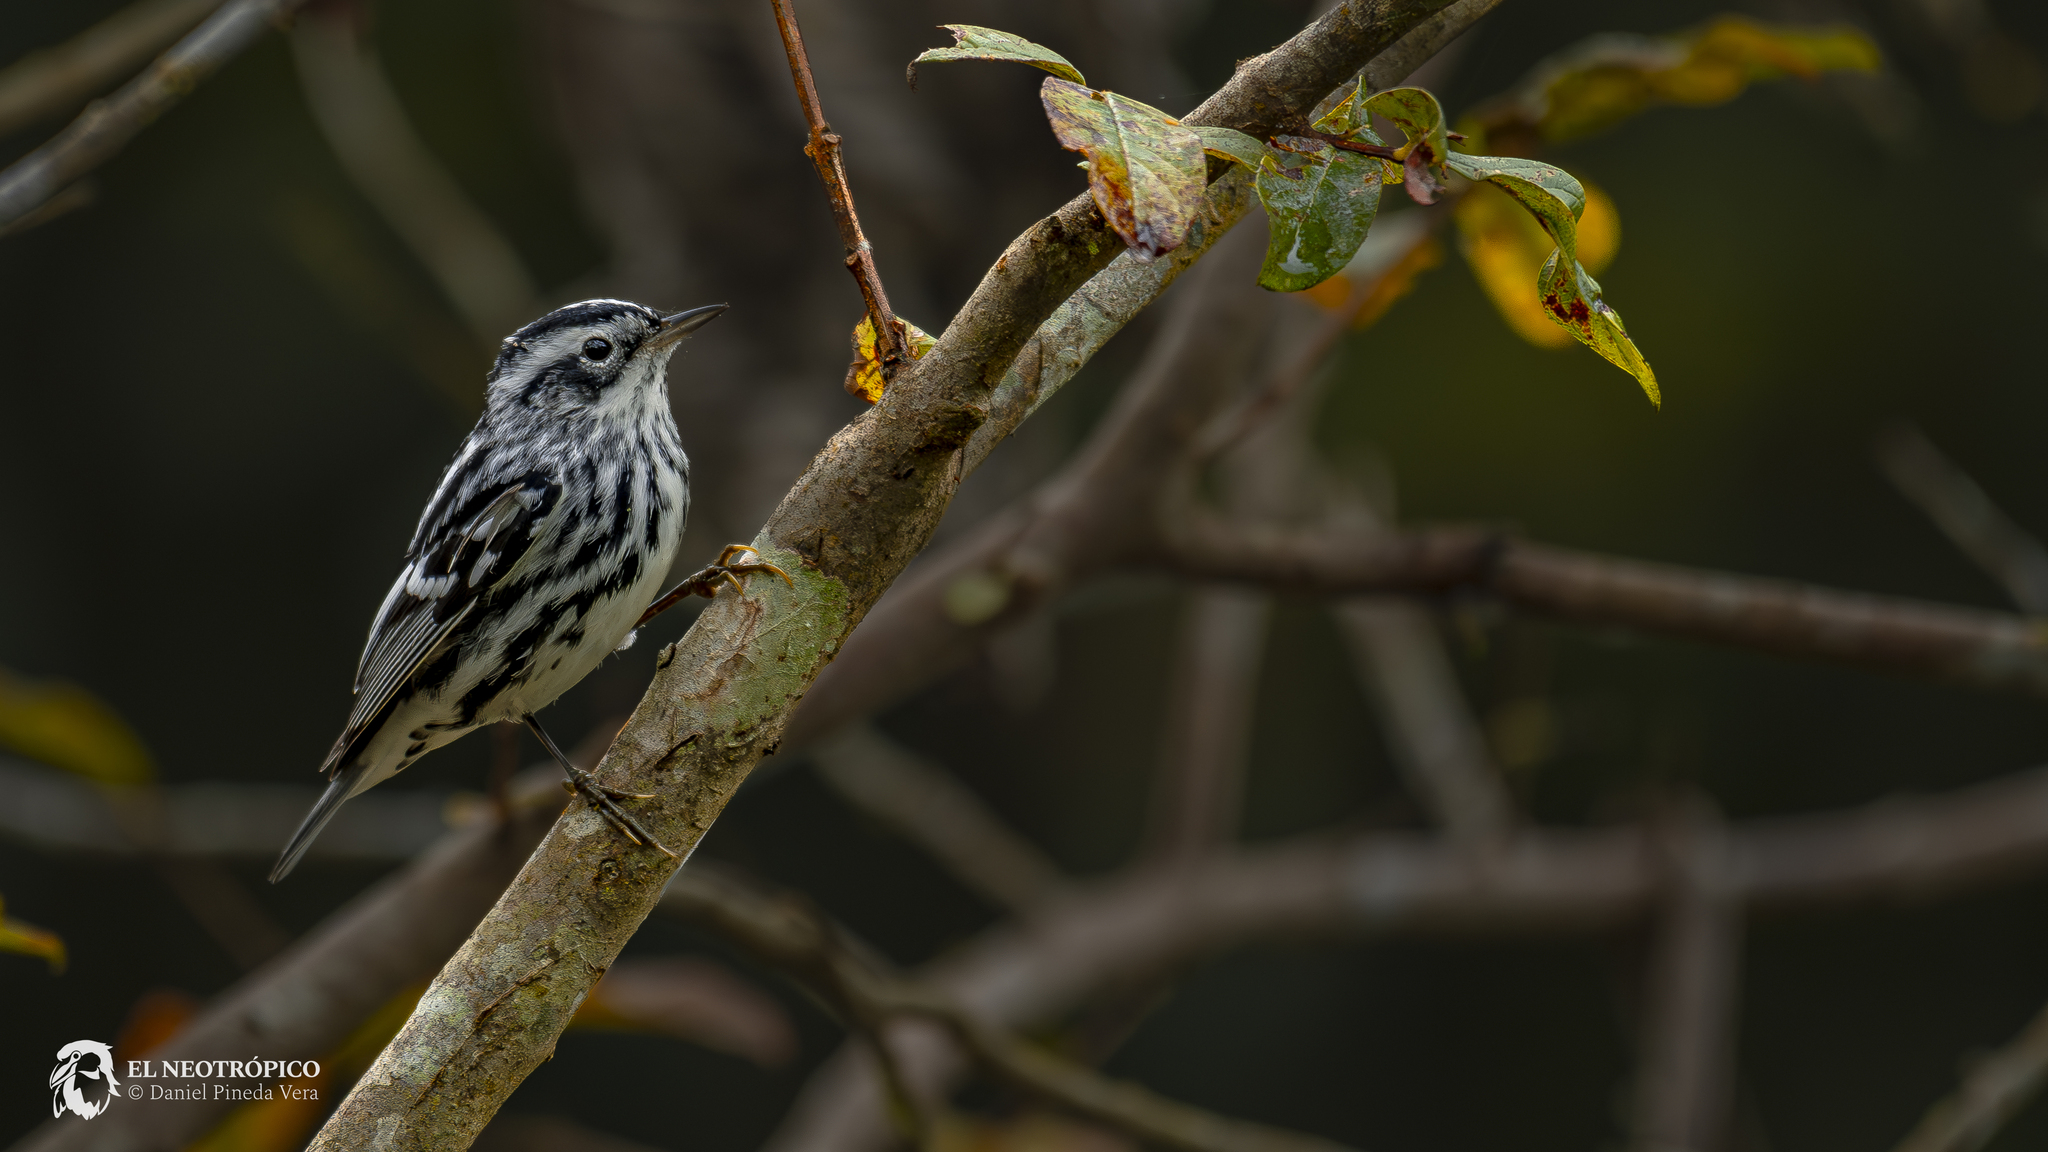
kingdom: Animalia
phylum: Chordata
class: Aves
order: Passeriformes
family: Parulidae
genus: Mniotilta
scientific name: Mniotilta varia
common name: Black-and-white warbler
